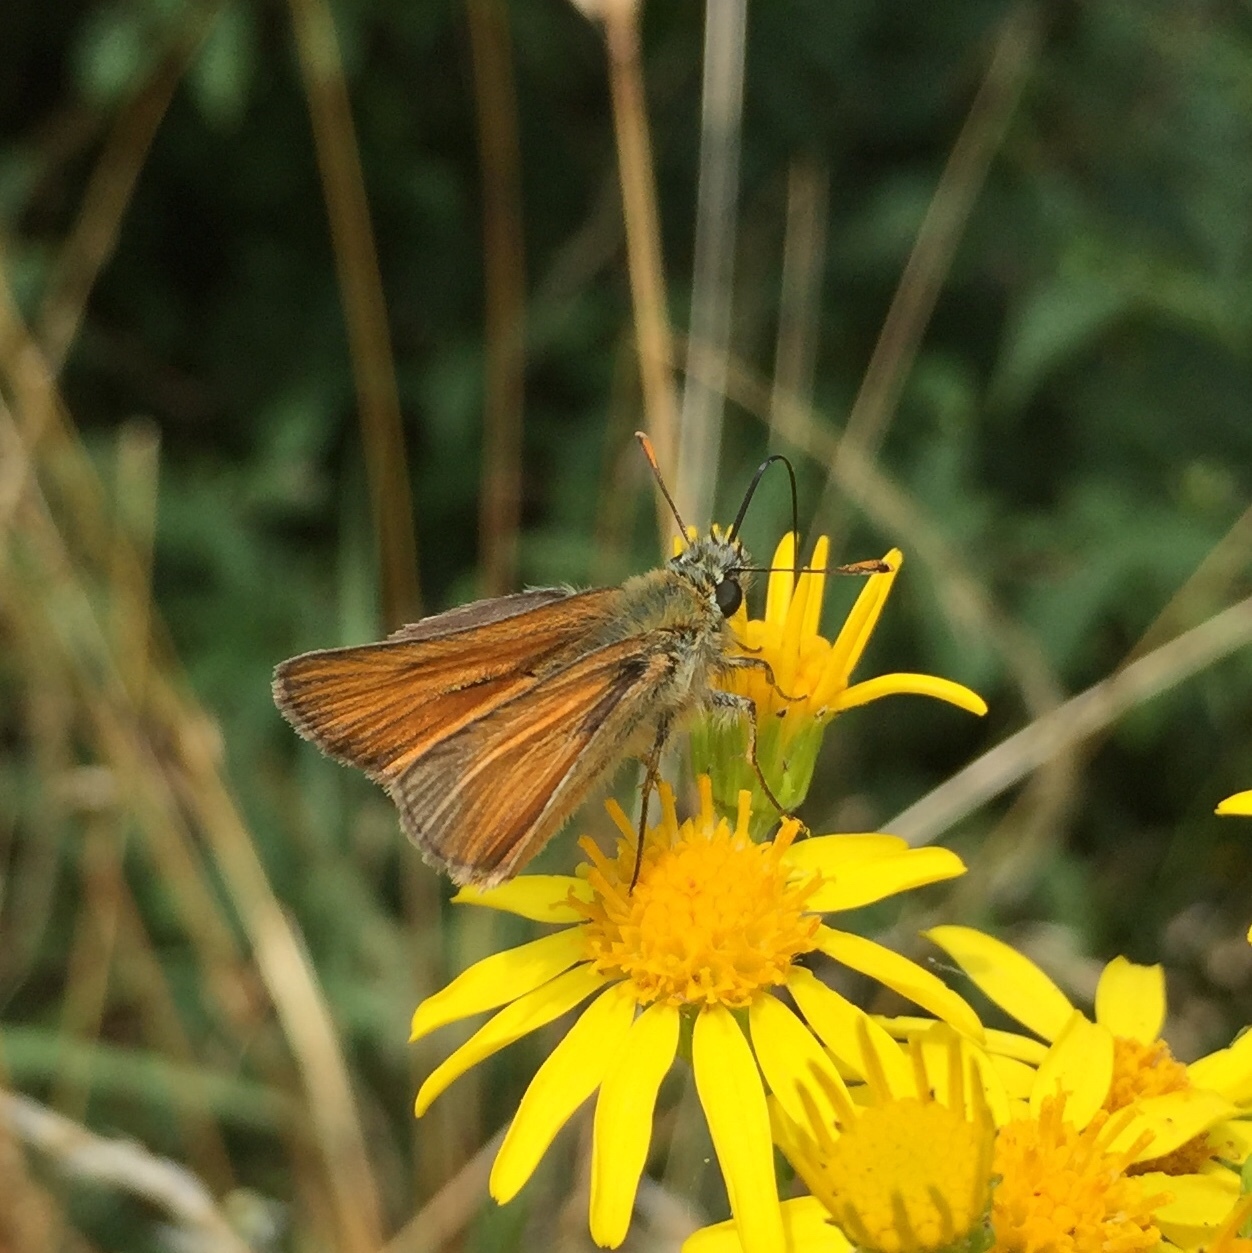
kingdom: Animalia
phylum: Arthropoda
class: Insecta
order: Lepidoptera
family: Hesperiidae
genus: Thymelicus
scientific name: Thymelicus sylvestris
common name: Small skipper
